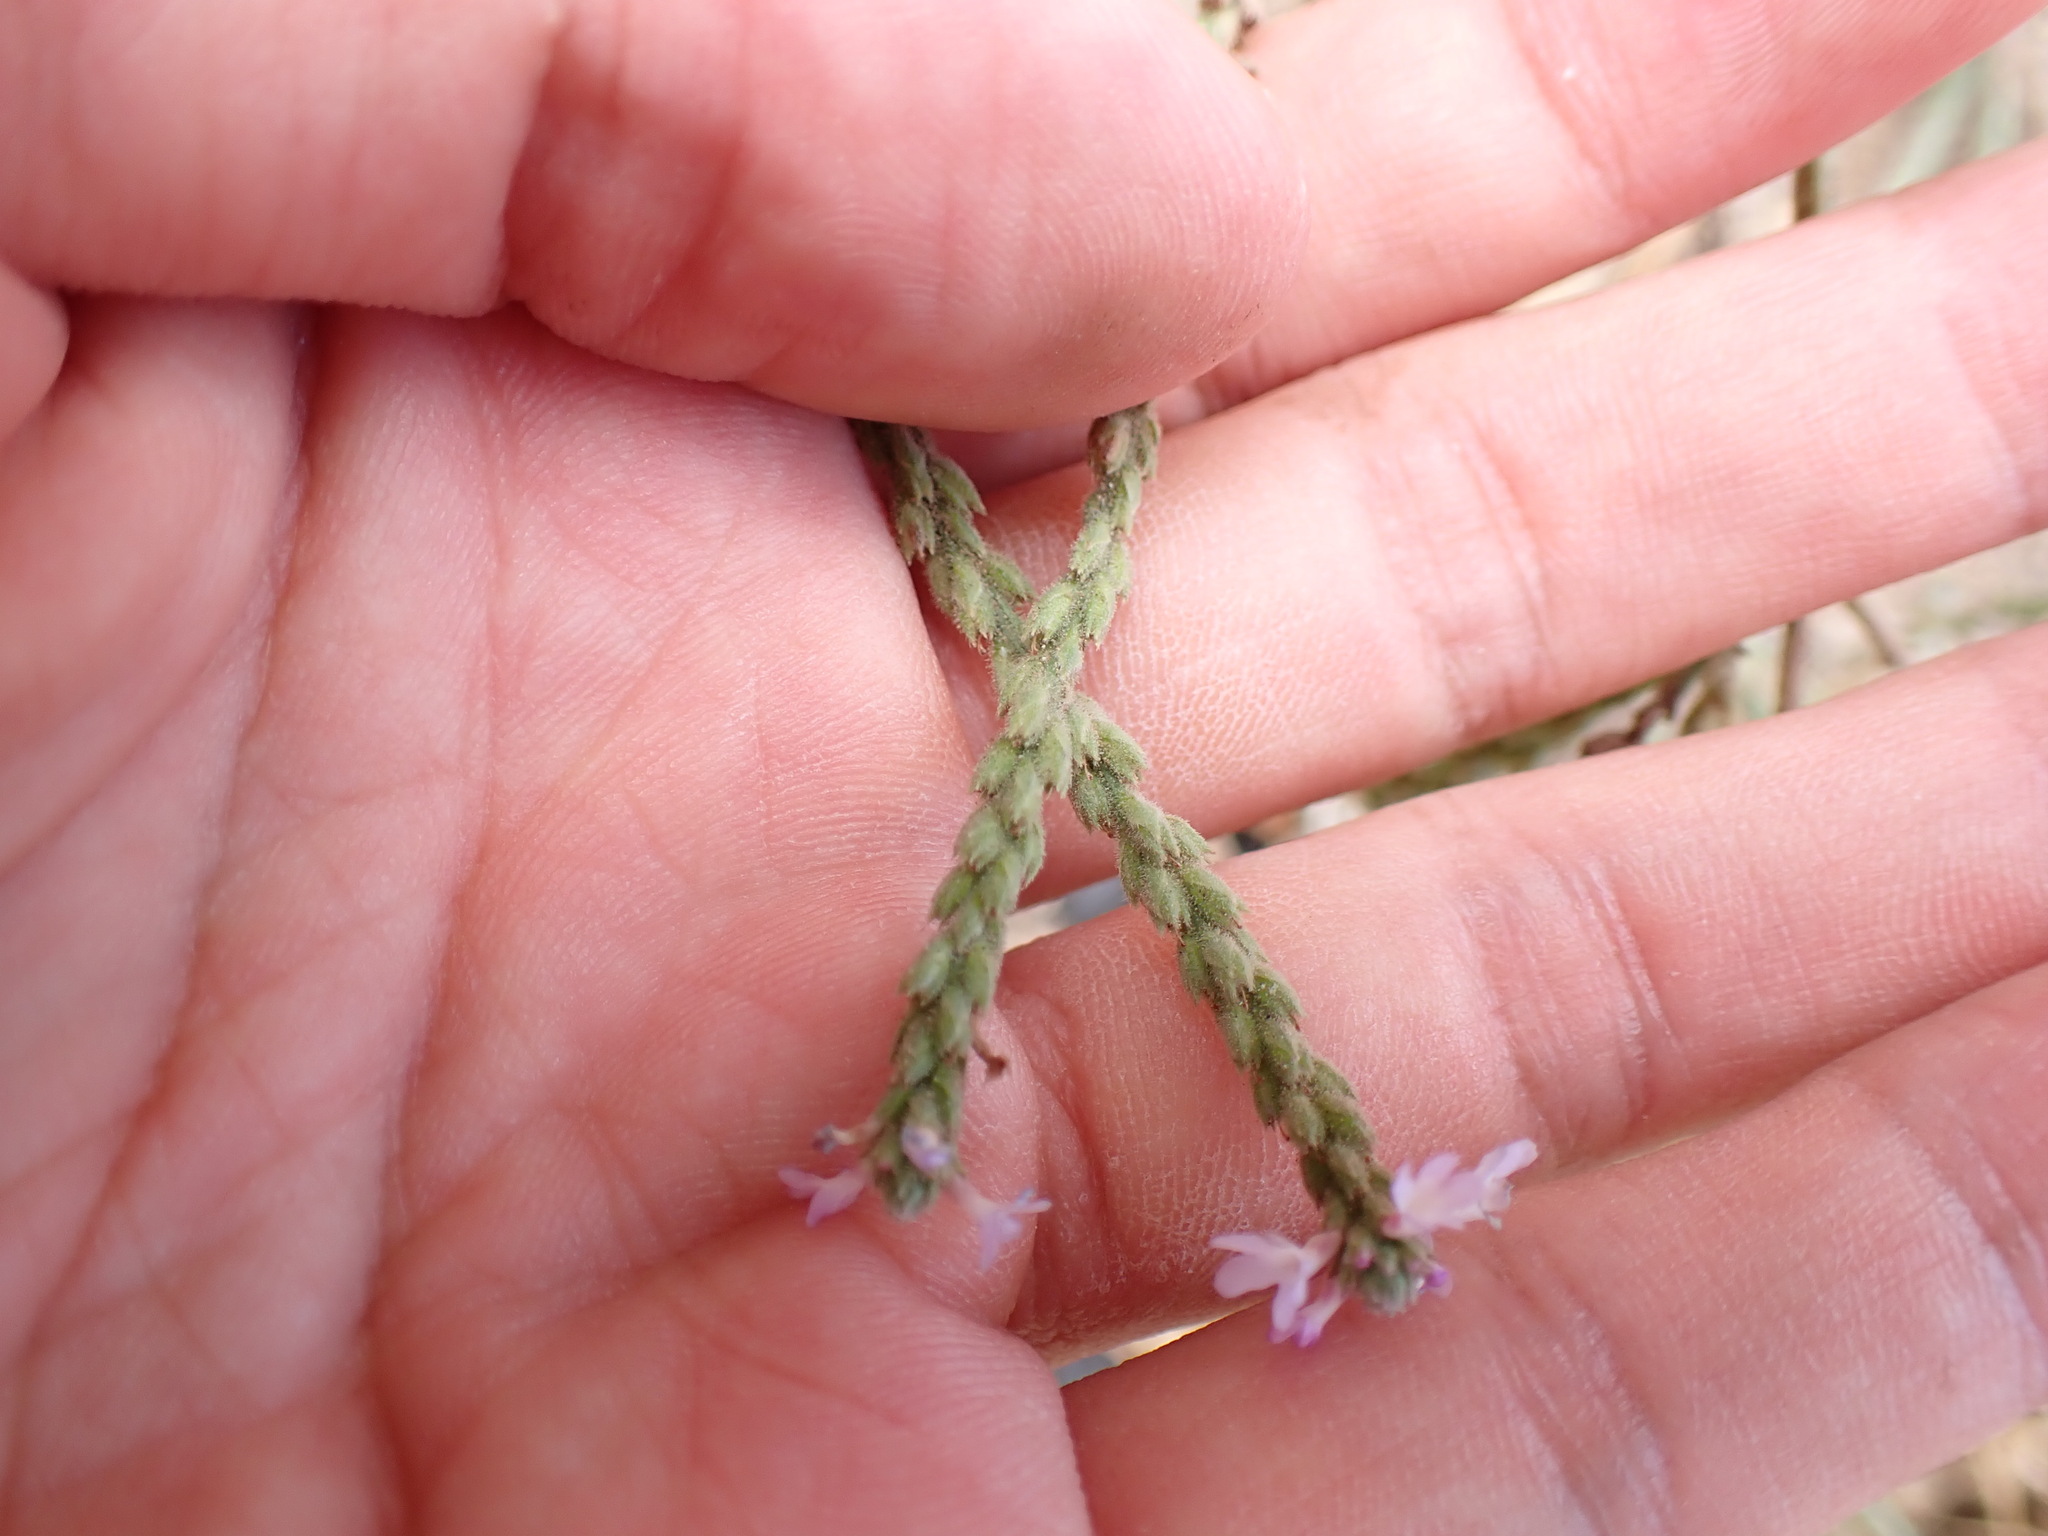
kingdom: Plantae
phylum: Tracheophyta
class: Magnoliopsida
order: Lamiales
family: Verbenaceae
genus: Verbena
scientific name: Verbena officinalis
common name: Vervain
